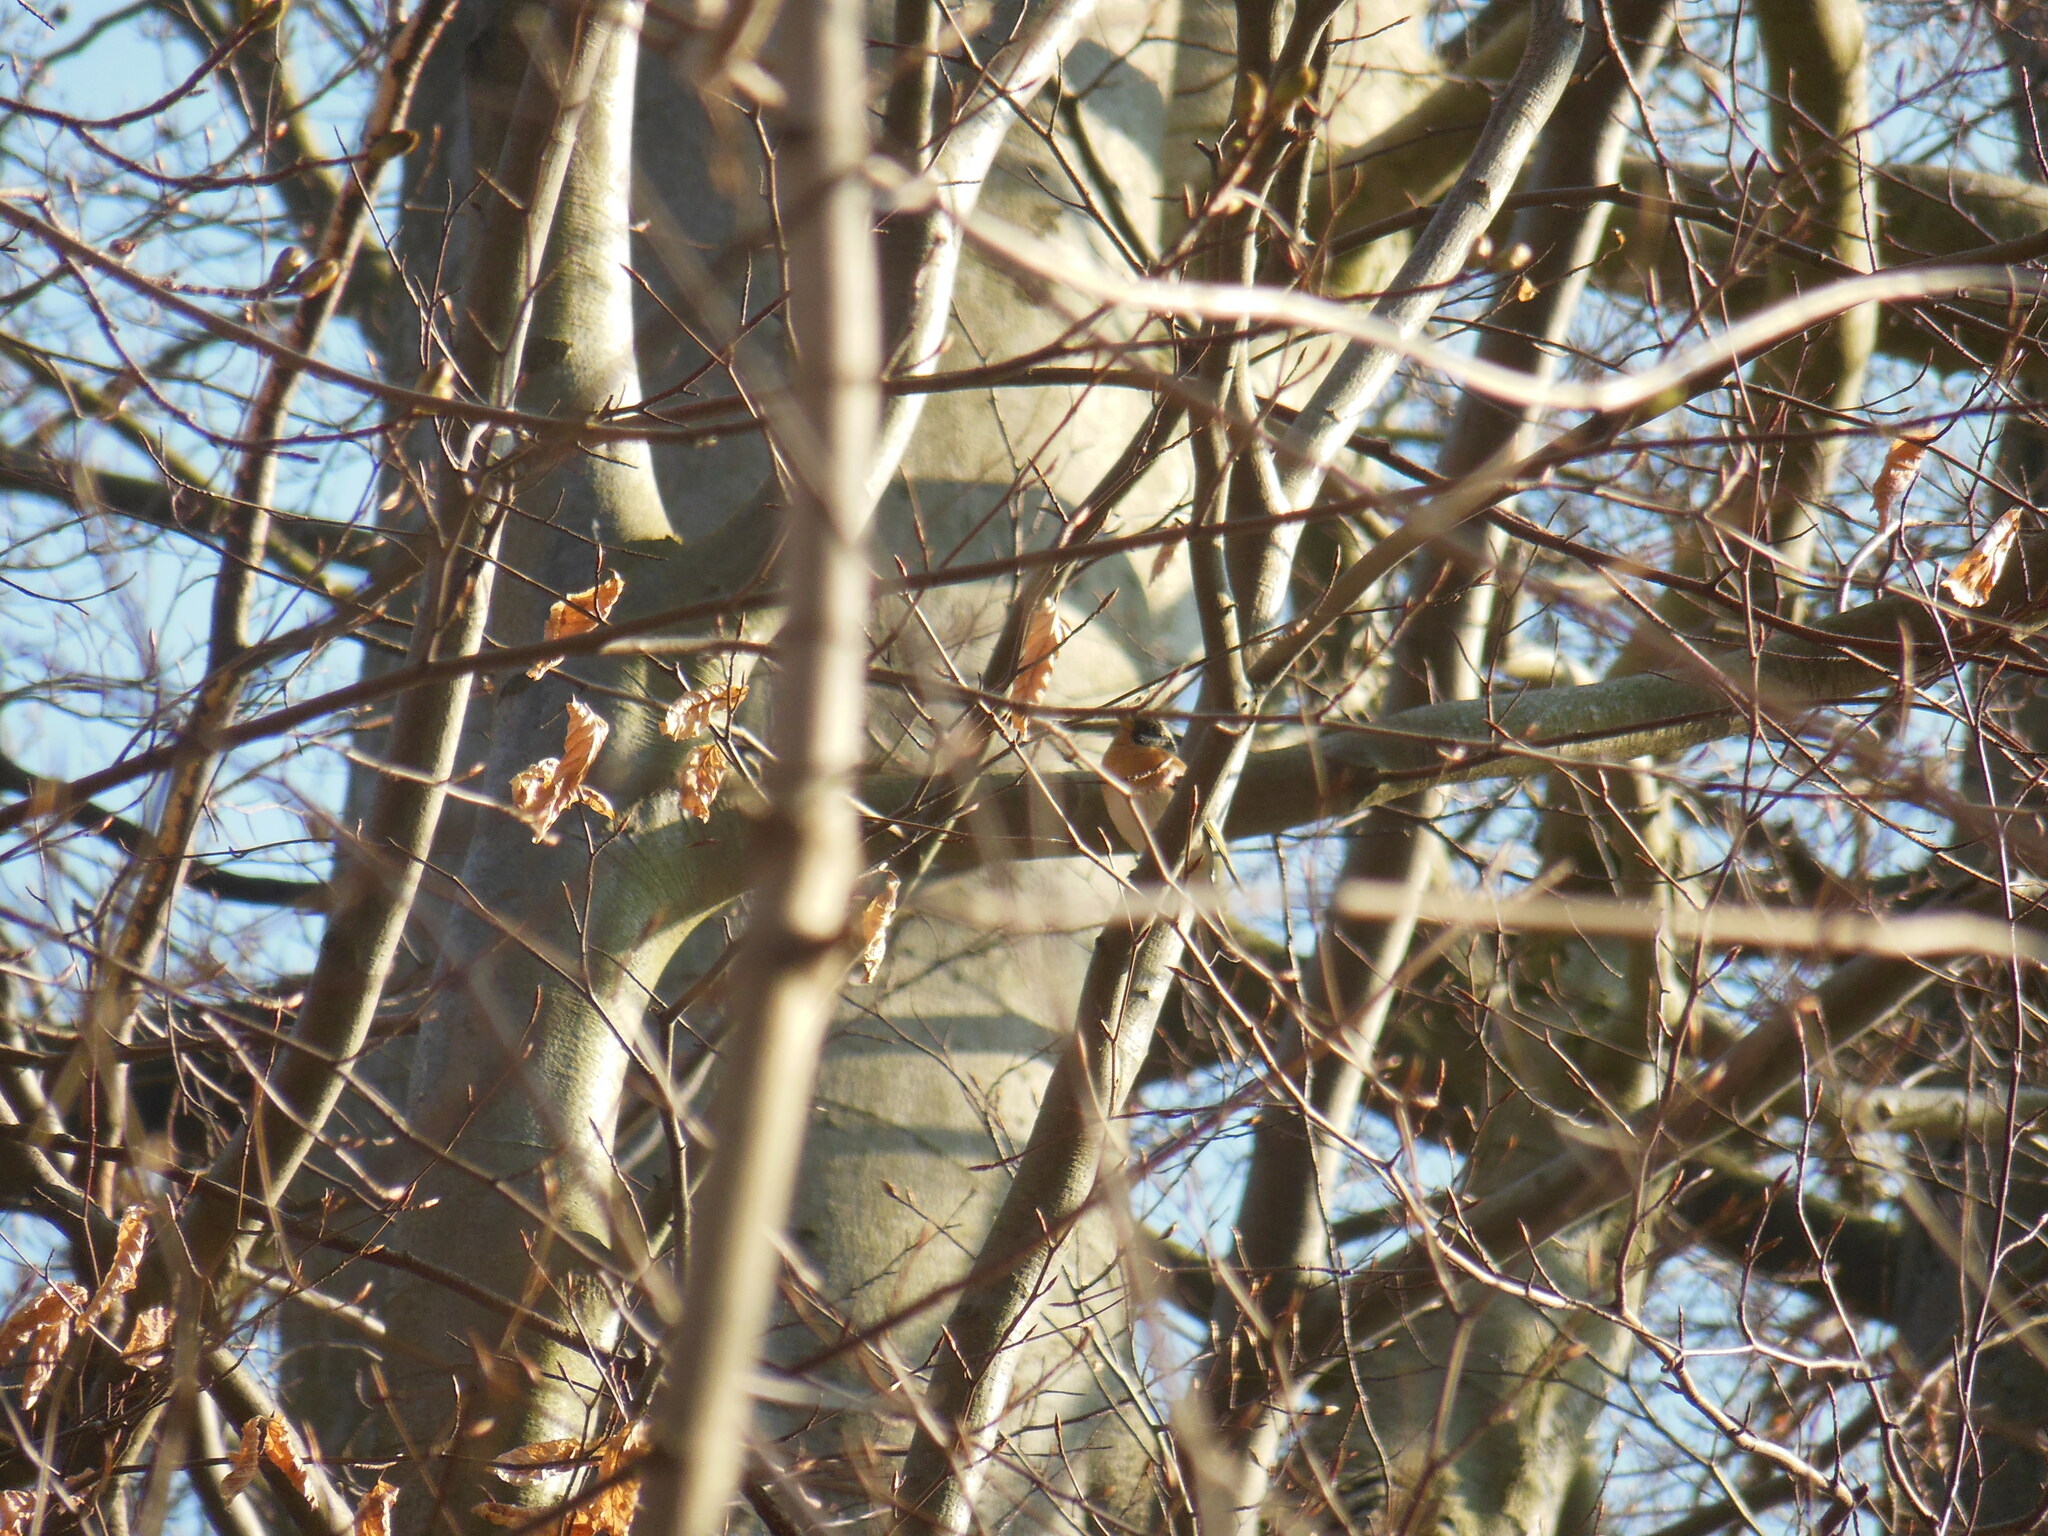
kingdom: Animalia
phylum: Chordata
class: Aves
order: Passeriformes
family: Fringillidae
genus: Fringilla
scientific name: Fringilla montifringilla
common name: Brambling
